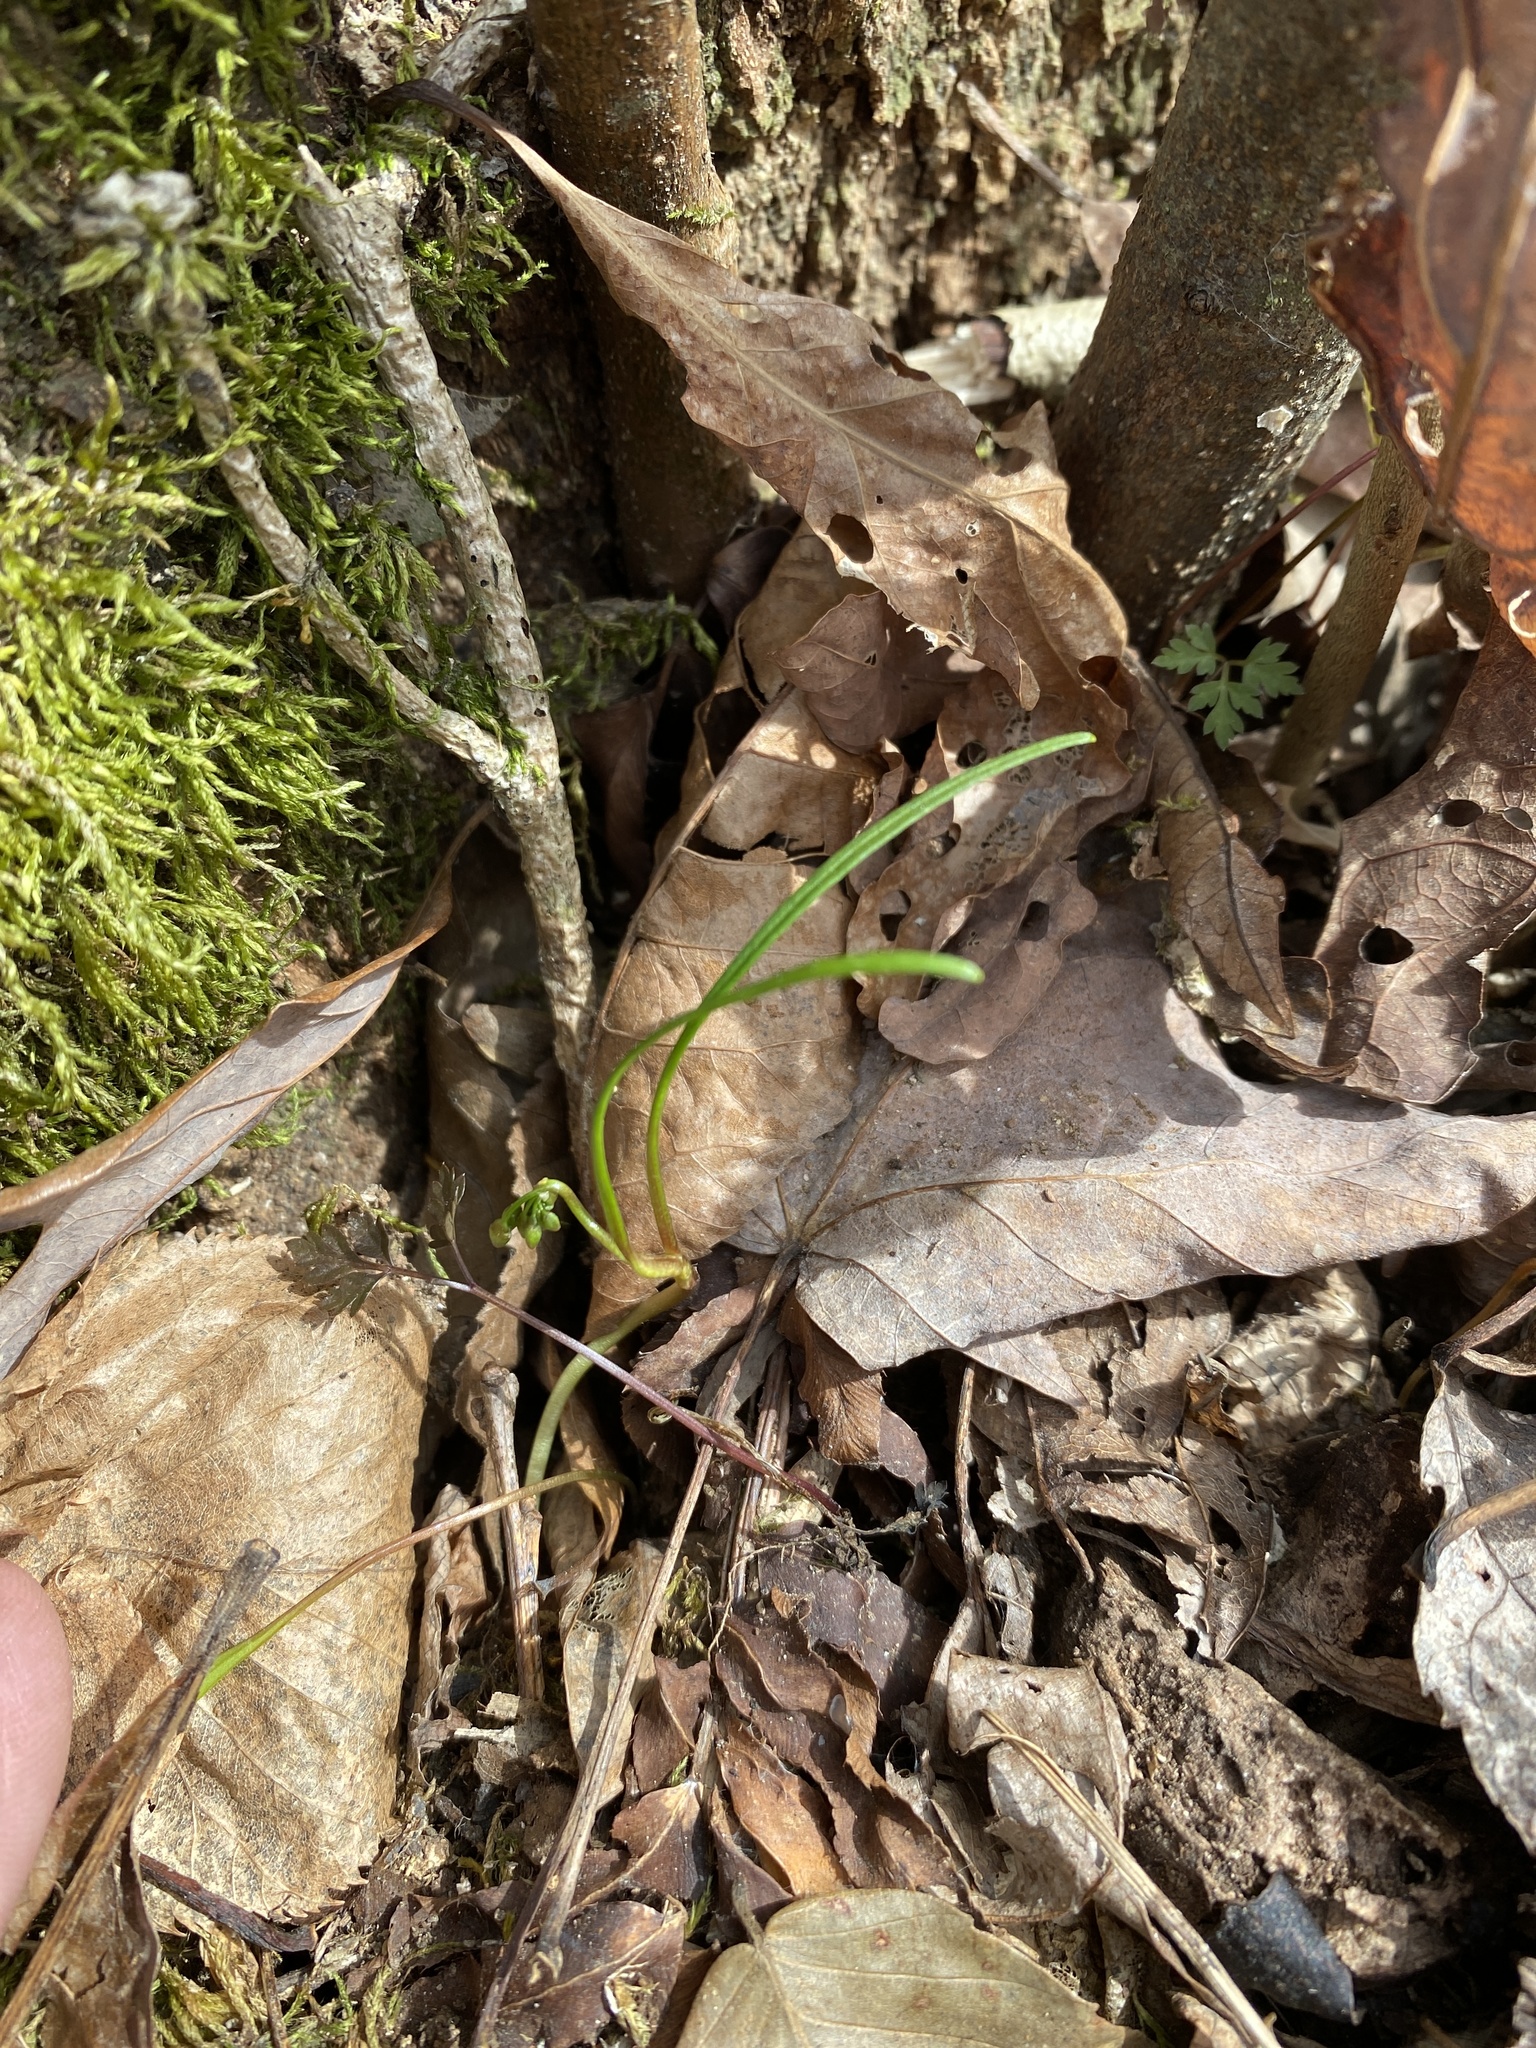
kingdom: Plantae
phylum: Tracheophyta
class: Magnoliopsida
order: Caryophyllales
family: Montiaceae
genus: Claytonia
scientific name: Claytonia virginica
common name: Virginia springbeauty
